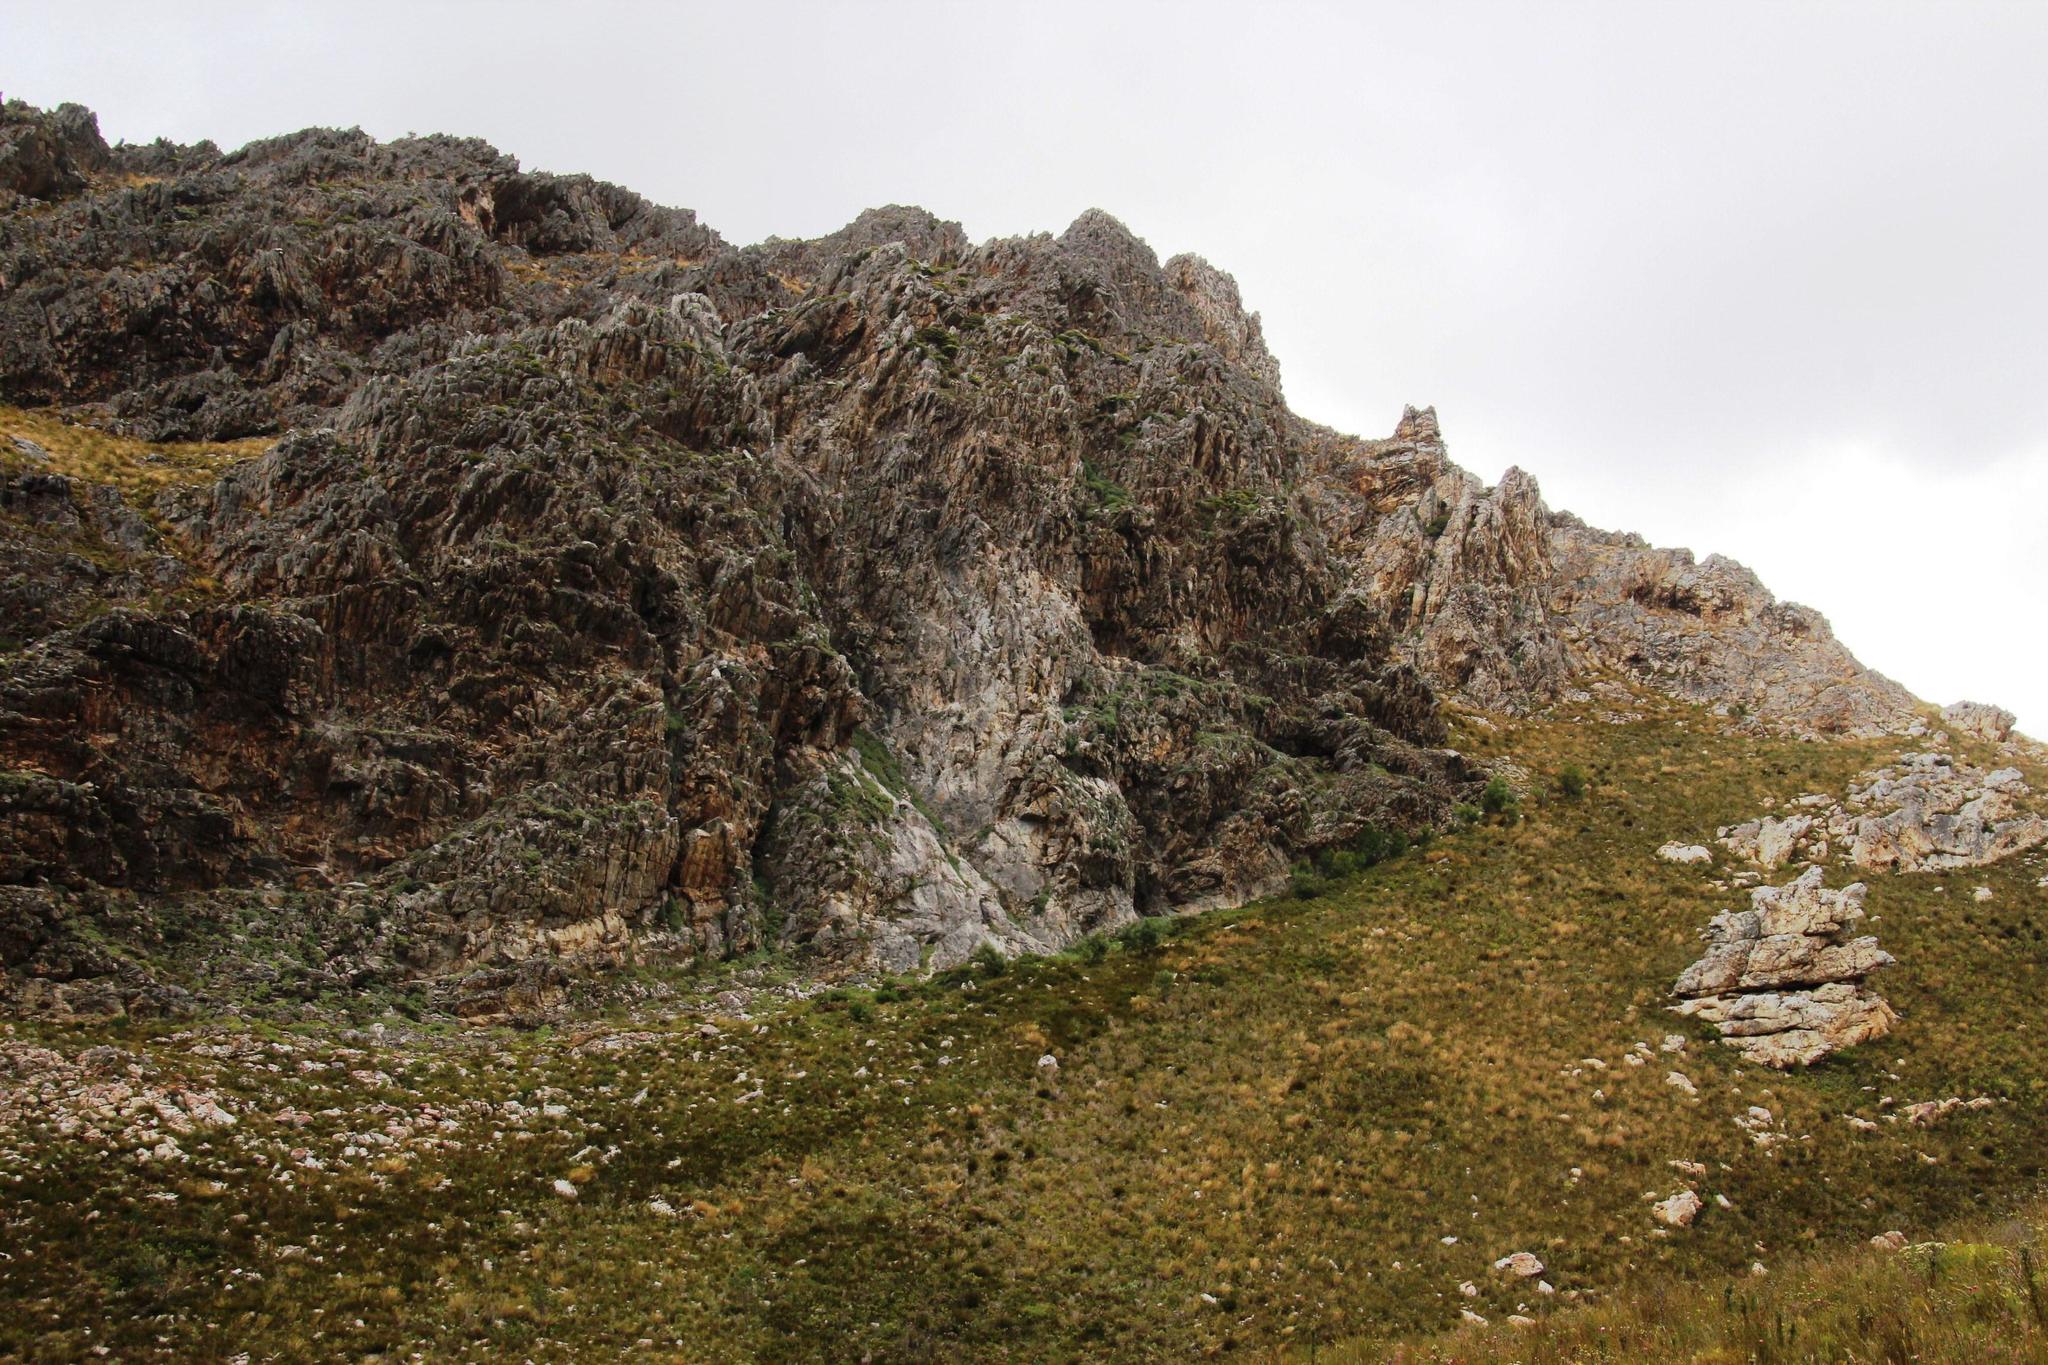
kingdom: Plantae
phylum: Tracheophyta
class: Magnoliopsida
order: Caryophyllales
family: Aizoaceae
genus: Scopelogena
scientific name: Scopelogena verruculata
